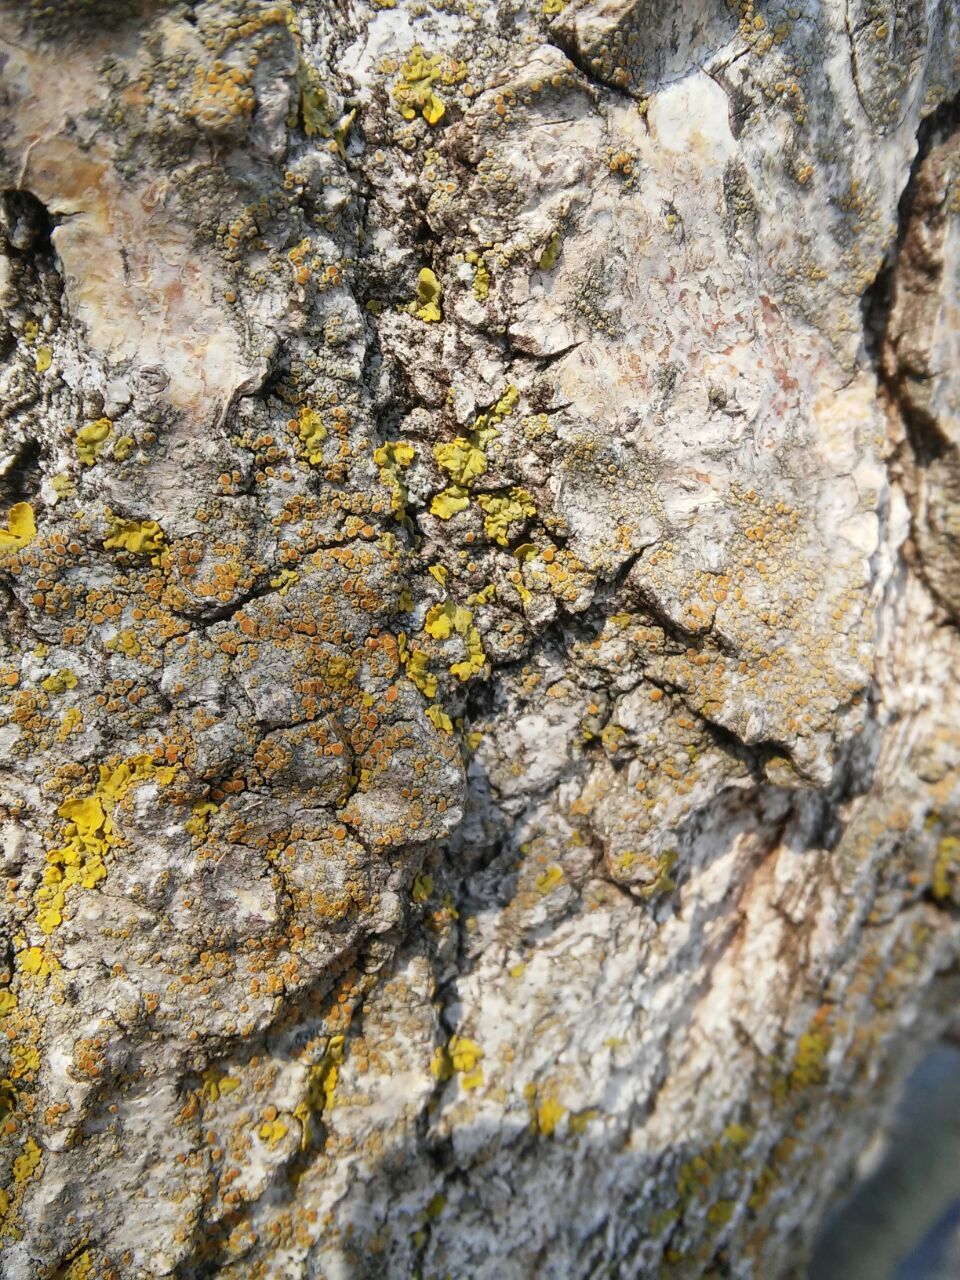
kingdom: Fungi
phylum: Ascomycota
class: Lecanoromycetes
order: Teloschistales
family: Teloschistaceae
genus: Athallia
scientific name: Athallia pyracea
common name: Flaming firedot lichen
